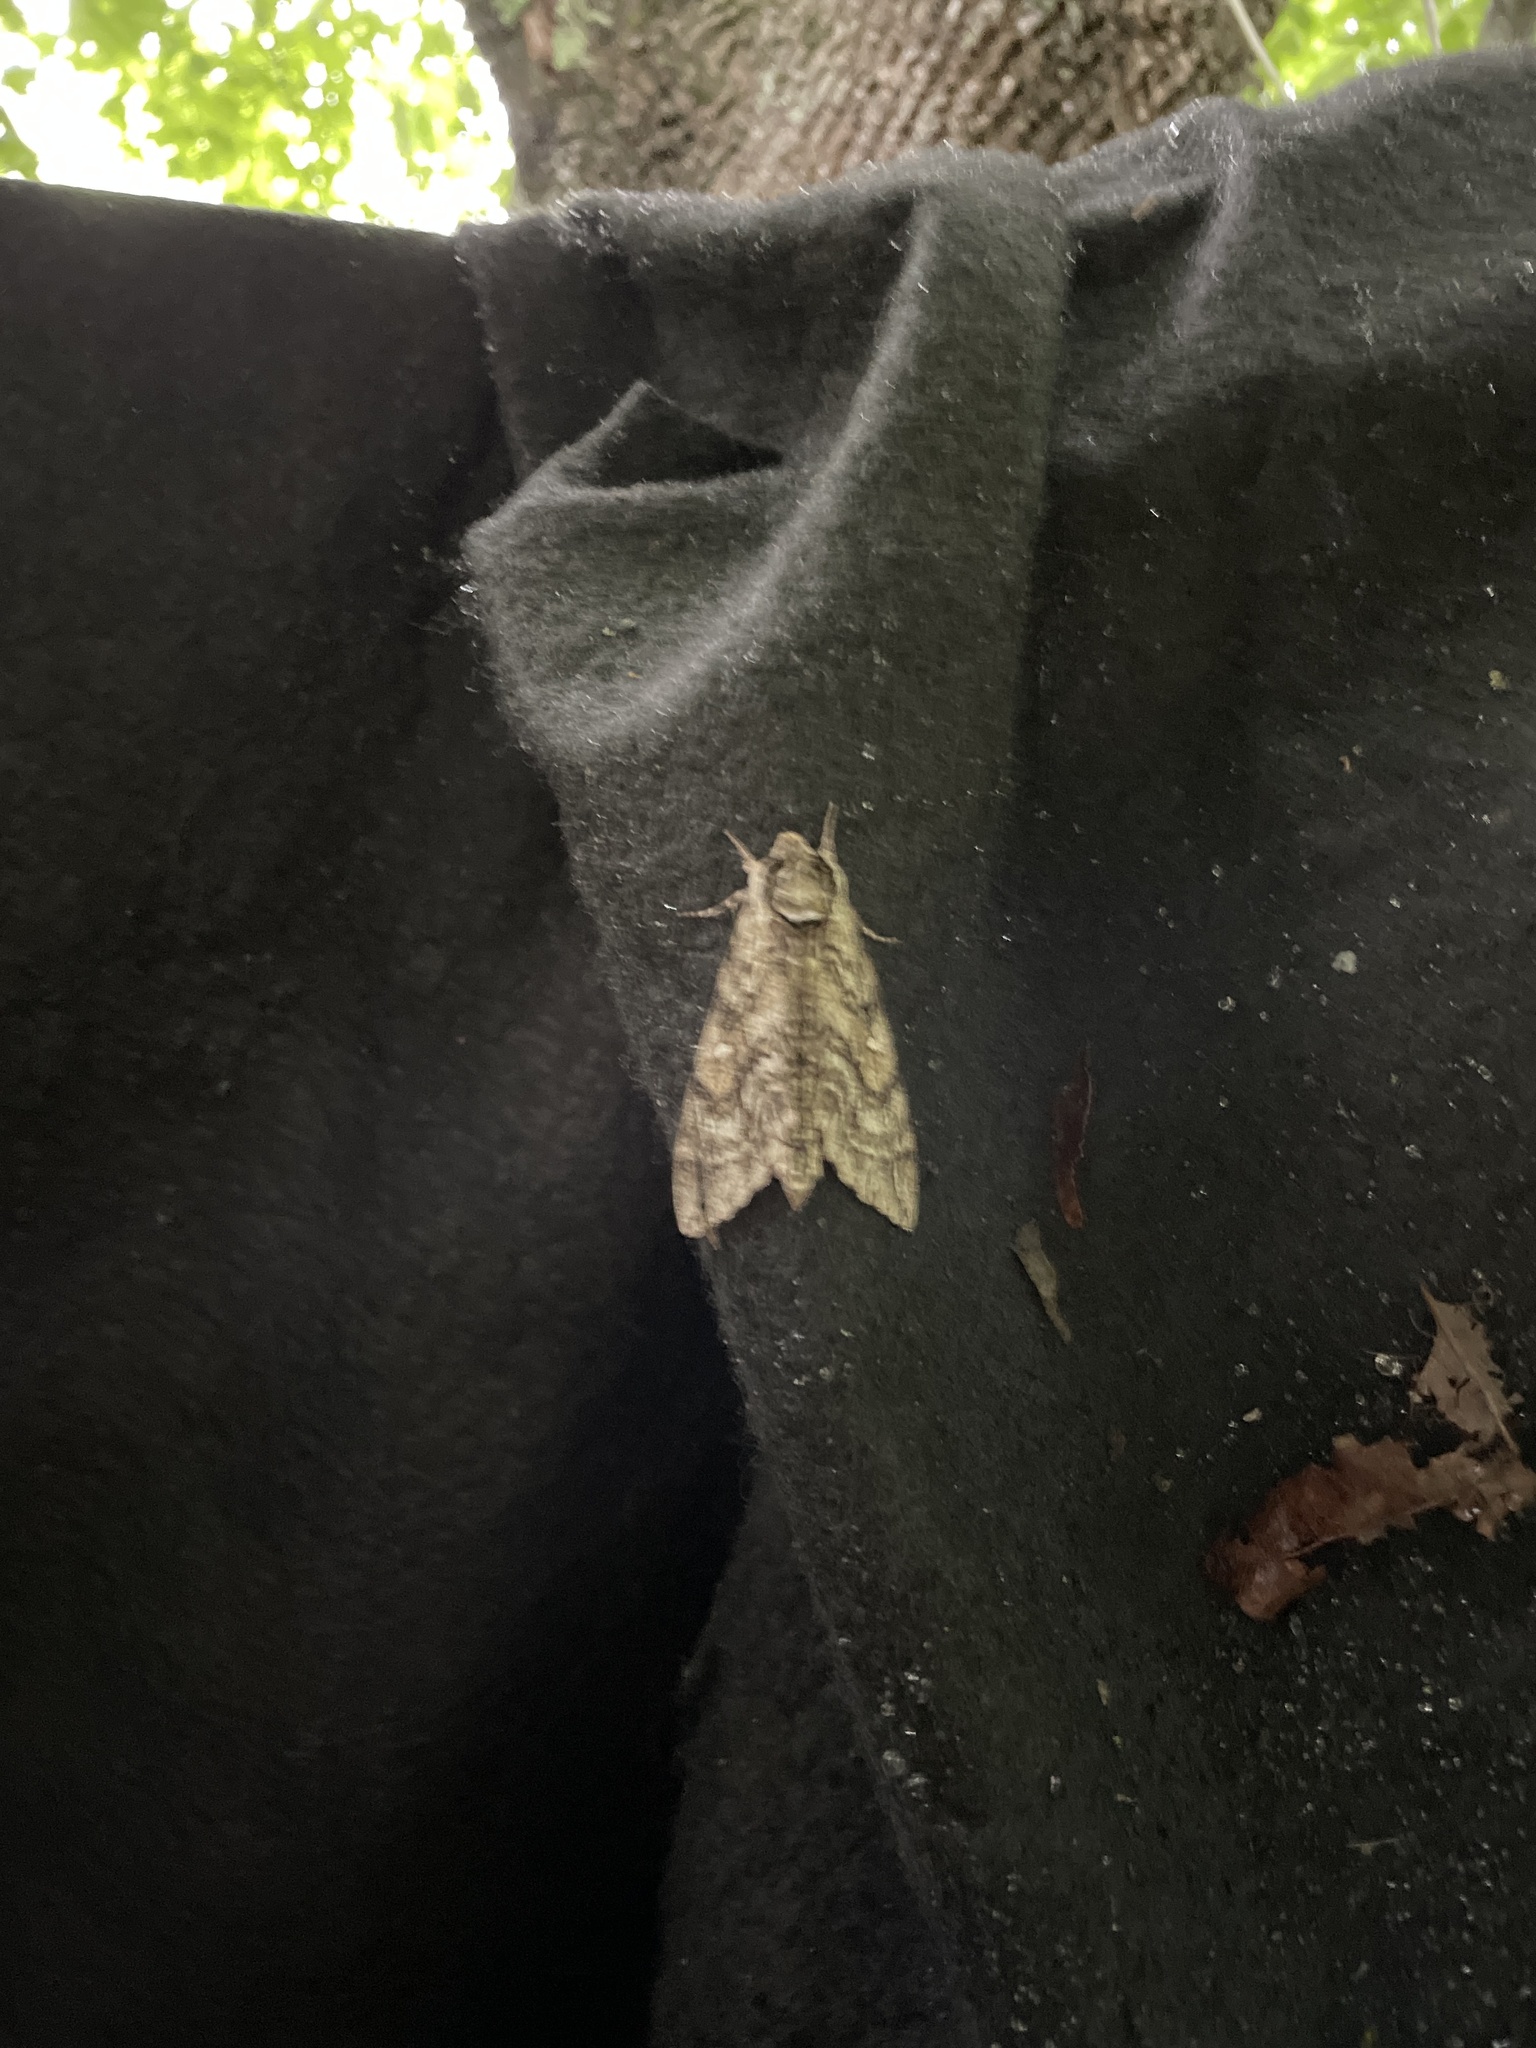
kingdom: Animalia
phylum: Arthropoda
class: Insecta
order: Lepidoptera
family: Sphingidae
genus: Ceratomia
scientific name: Ceratomia undulosa
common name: Waved sphinx
